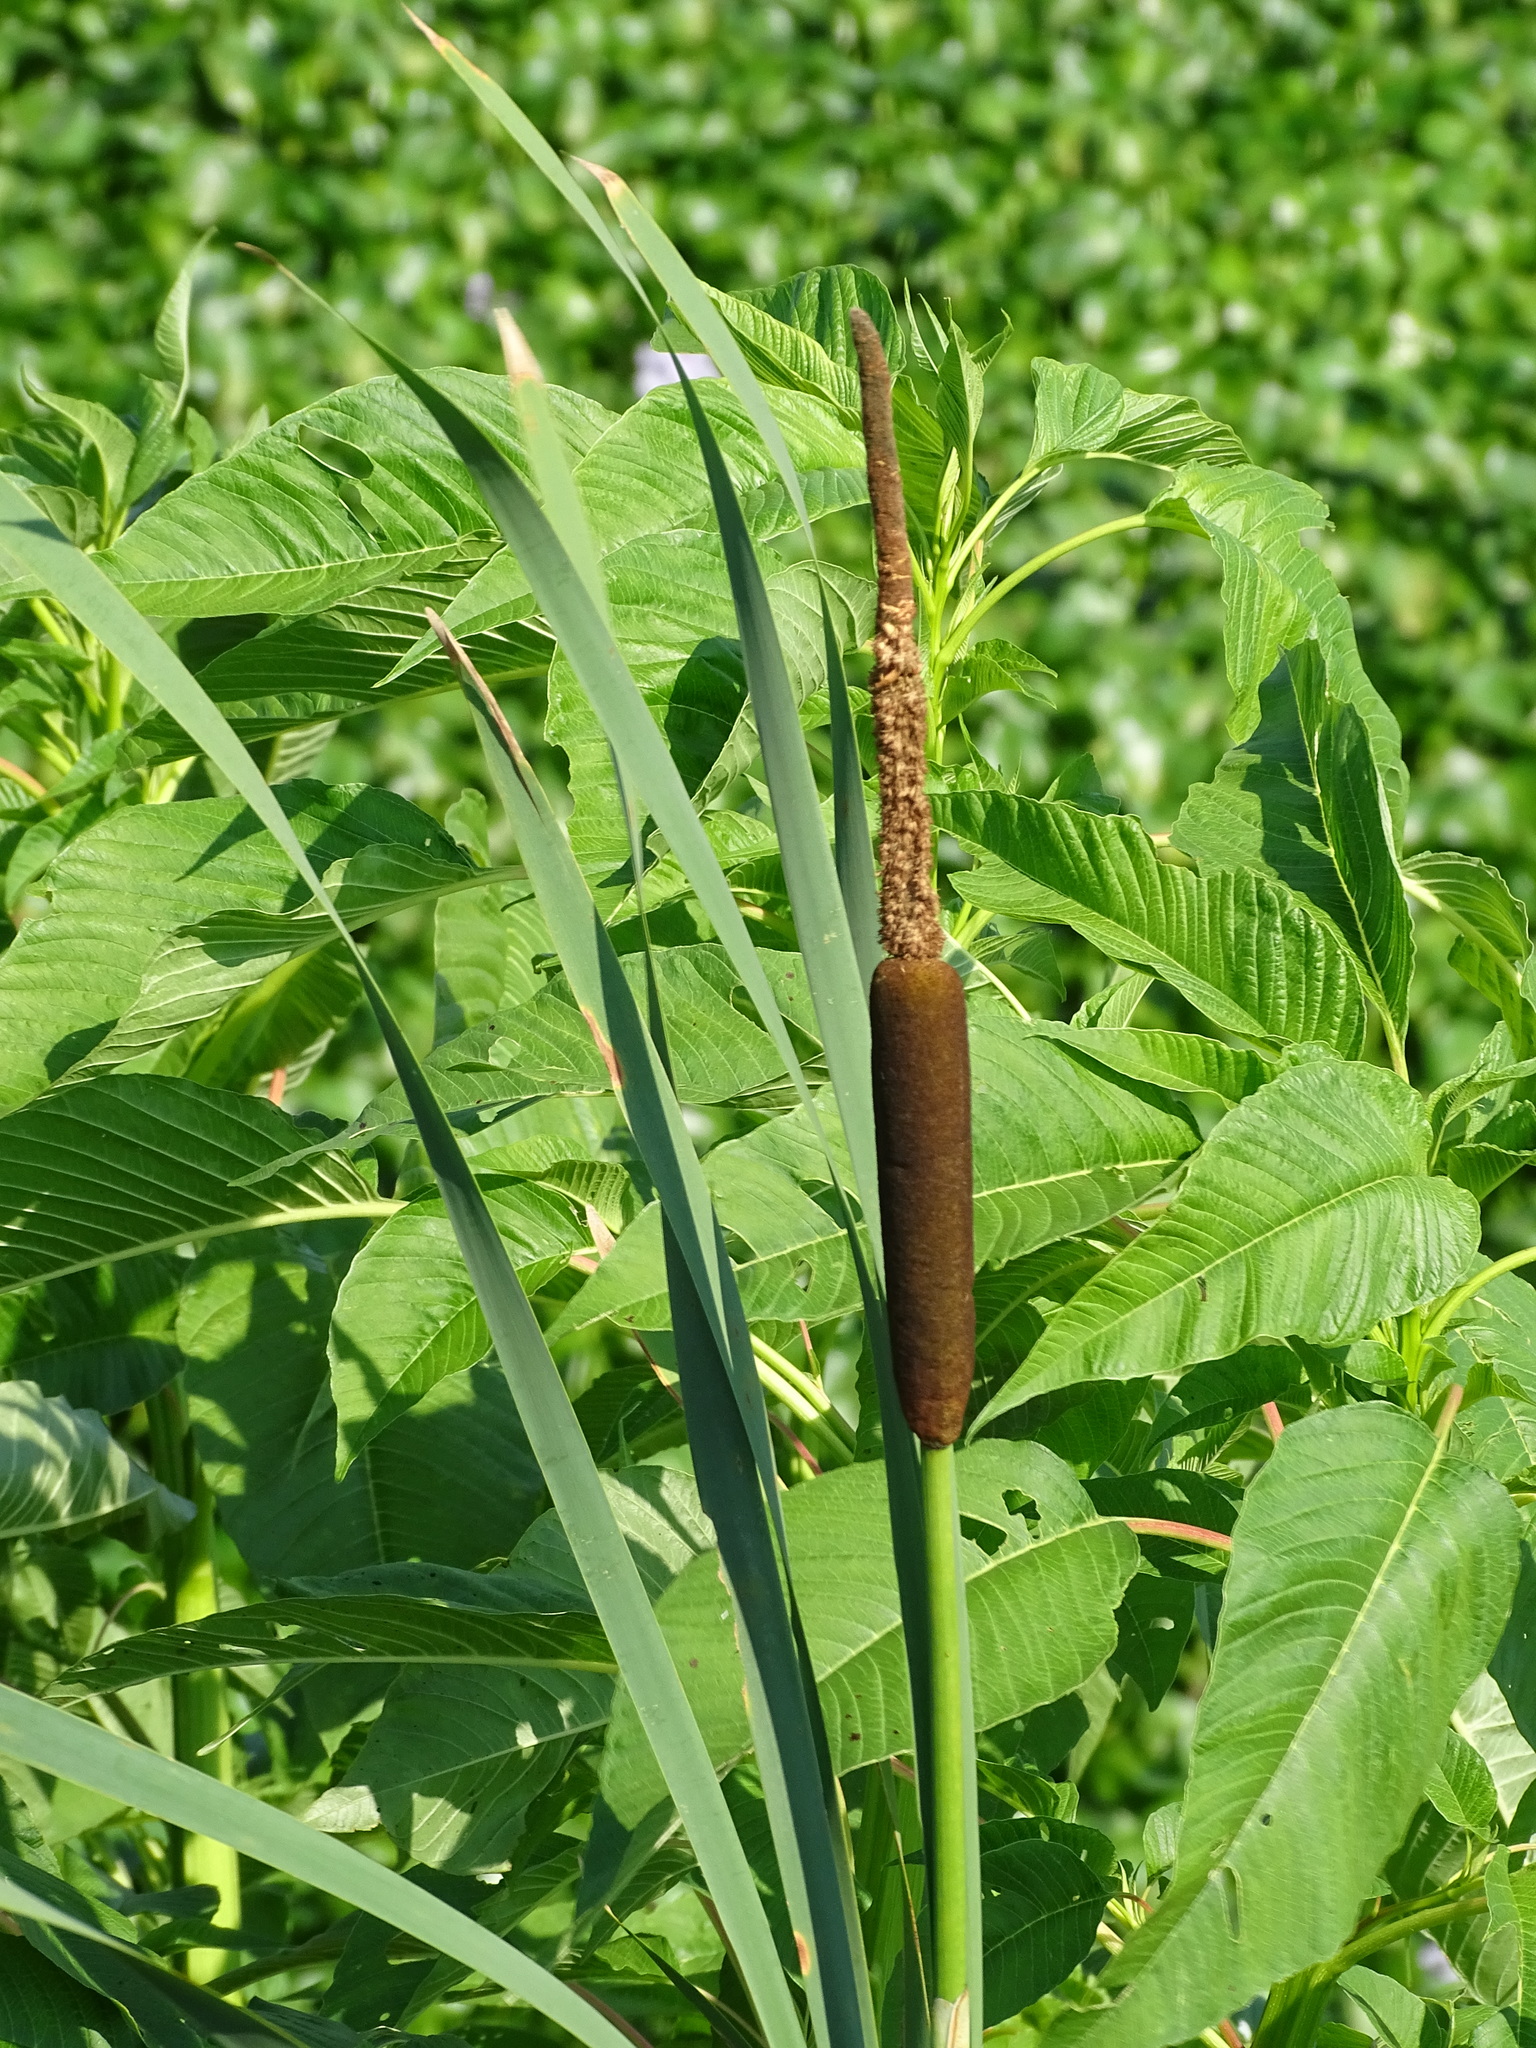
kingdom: Plantae
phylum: Tracheophyta
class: Liliopsida
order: Poales
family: Typhaceae
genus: Typha
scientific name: Typha latifolia
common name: Broadleaf cattail
